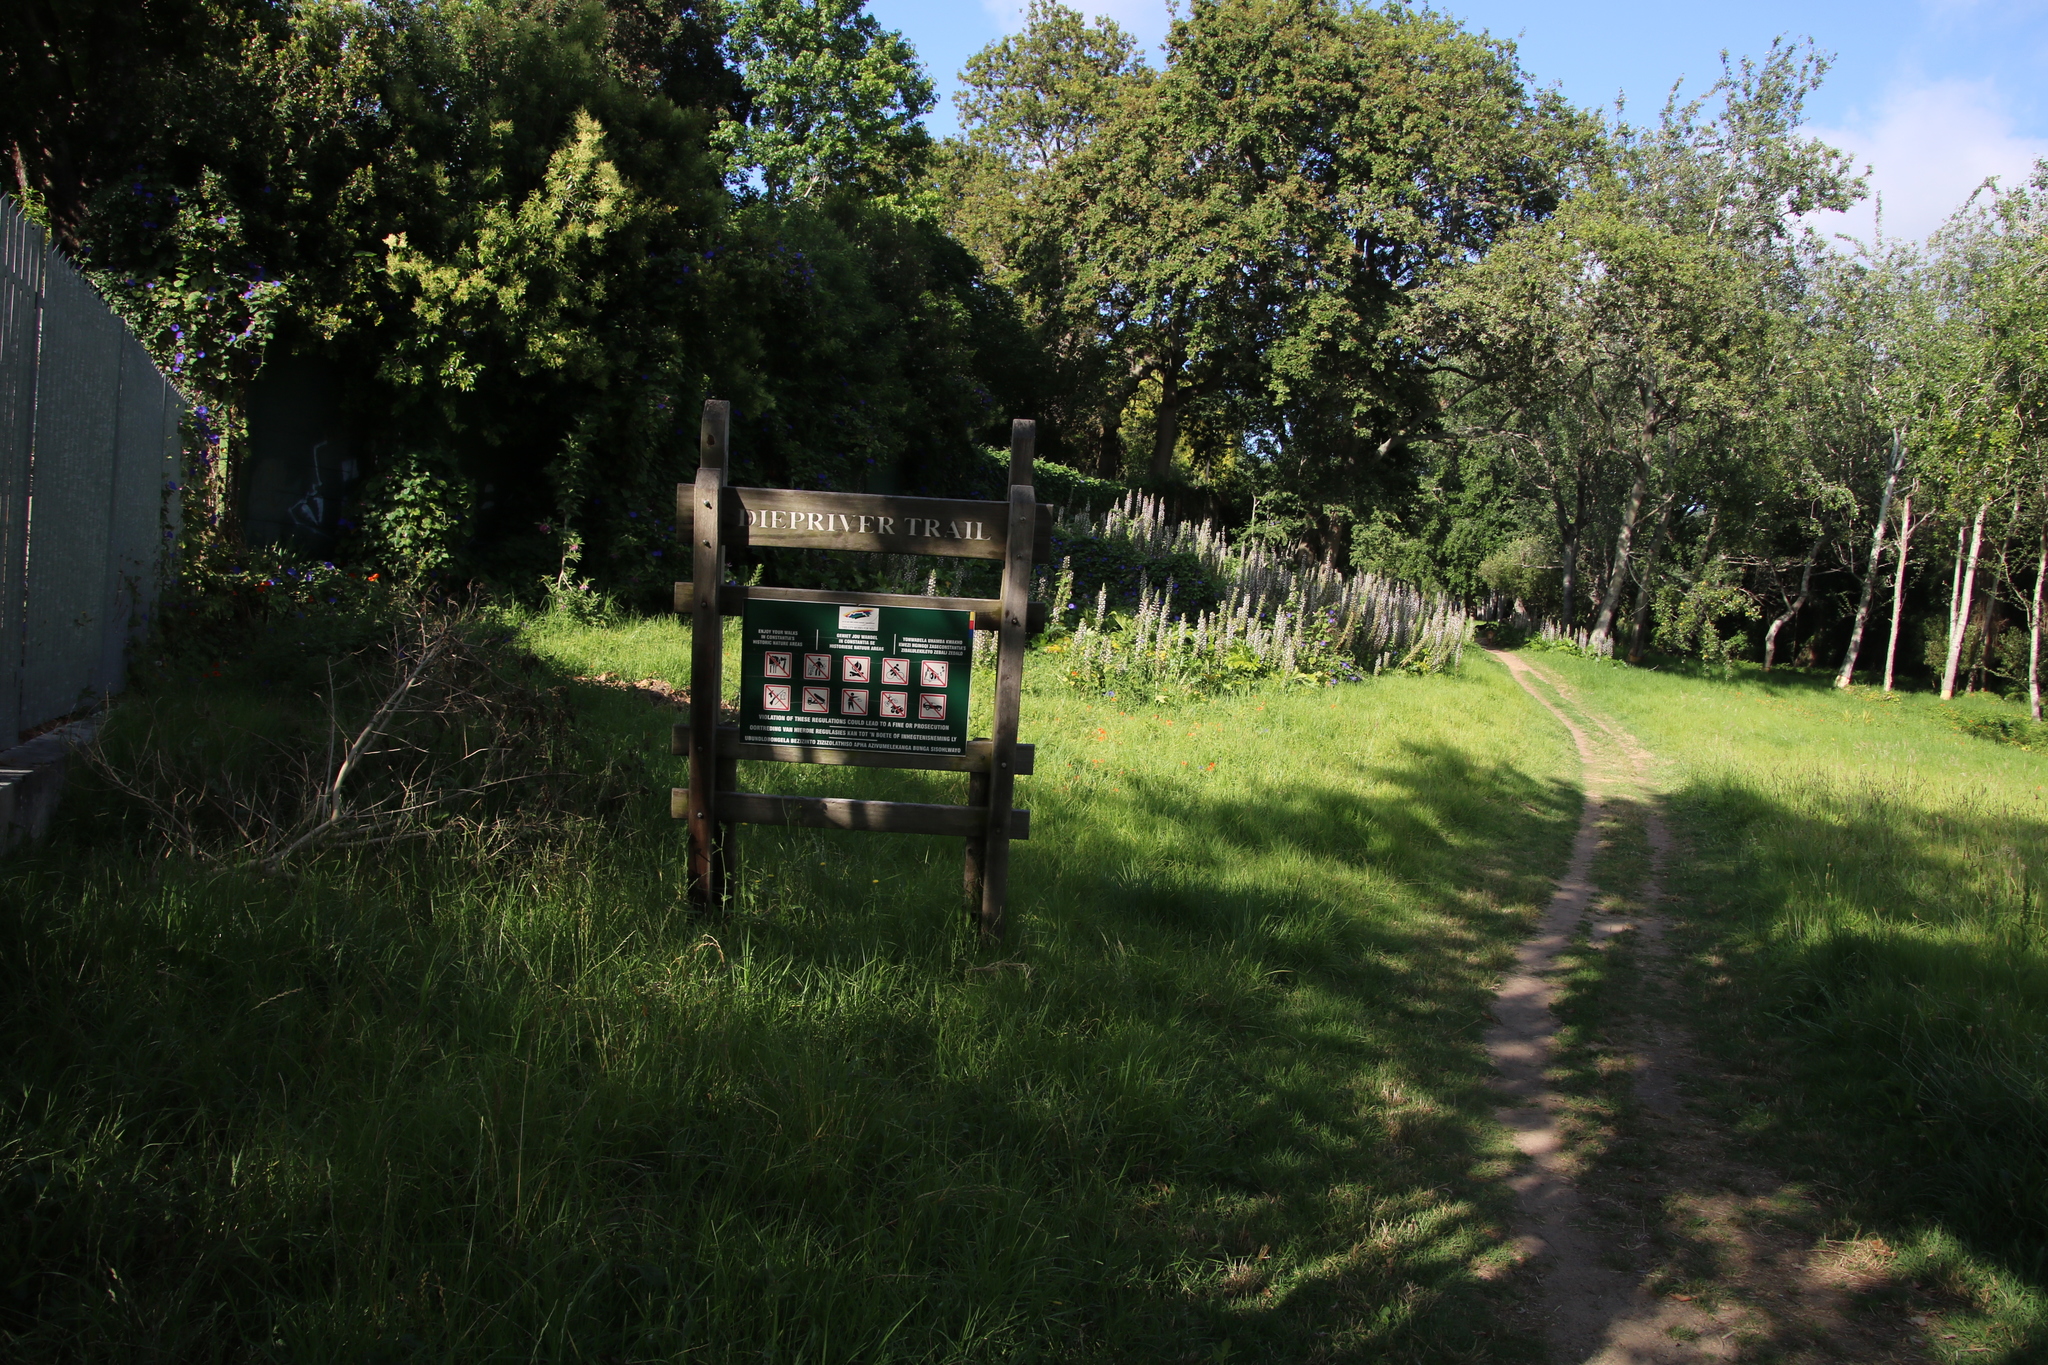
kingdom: Plantae
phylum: Tracheophyta
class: Magnoliopsida
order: Lamiales
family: Acanthaceae
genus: Acanthus
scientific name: Acanthus mollis
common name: Bear's-breech
